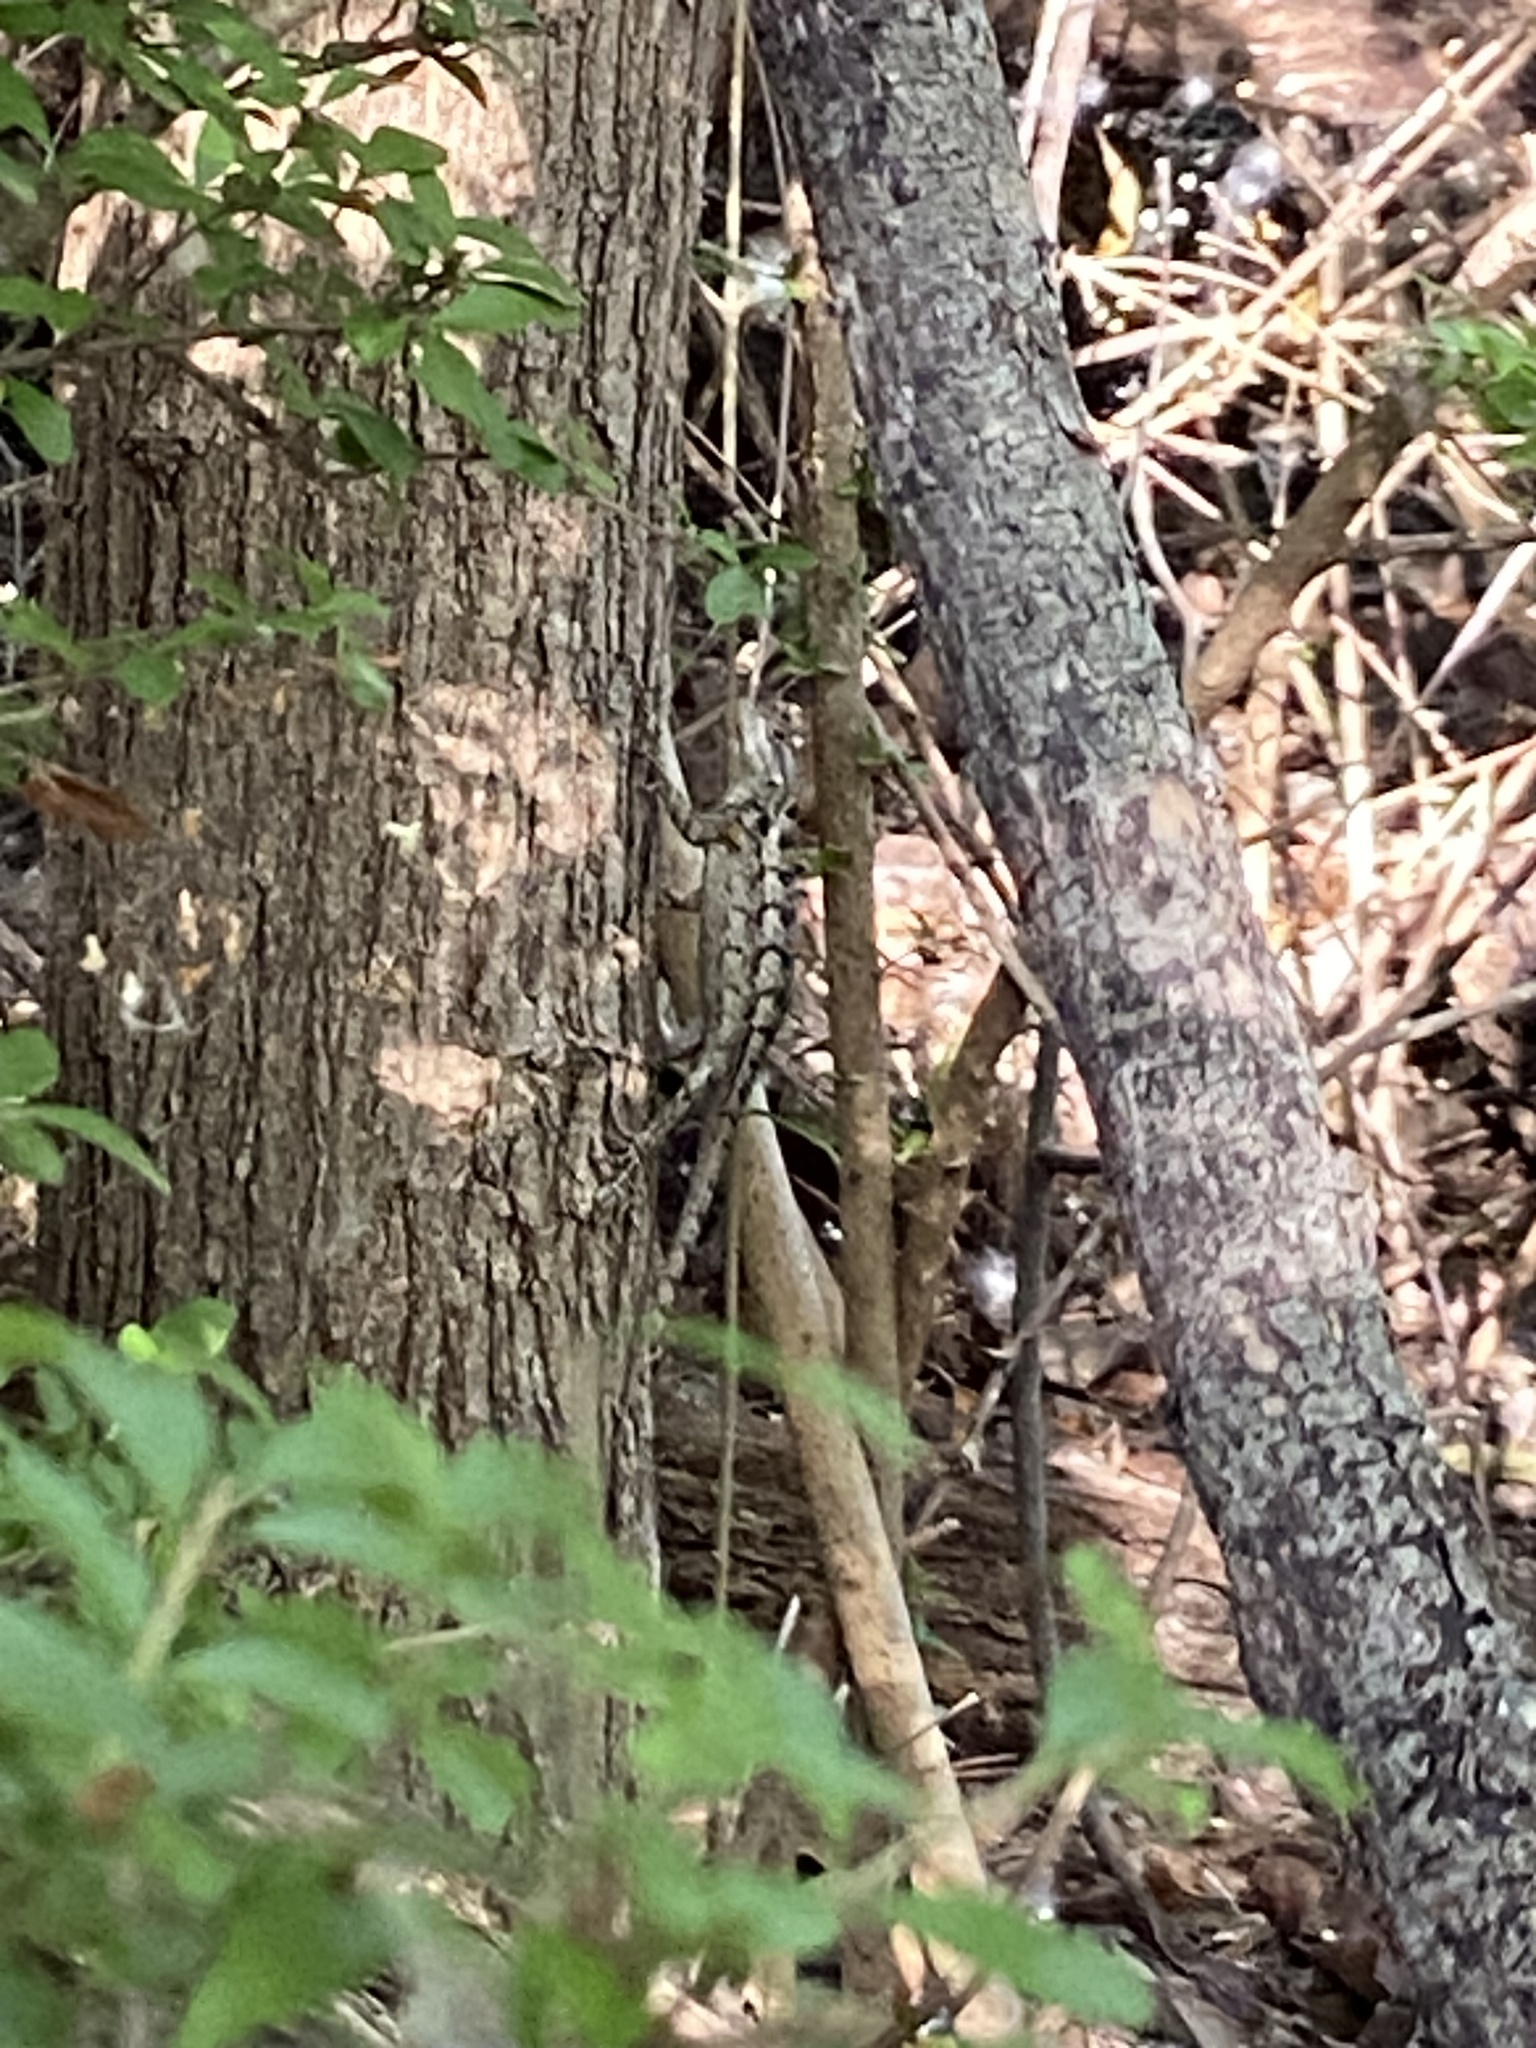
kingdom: Animalia
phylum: Chordata
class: Squamata
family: Phrynosomatidae
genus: Sceloporus
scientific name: Sceloporus olivaceus
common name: Texas spiny lizard
